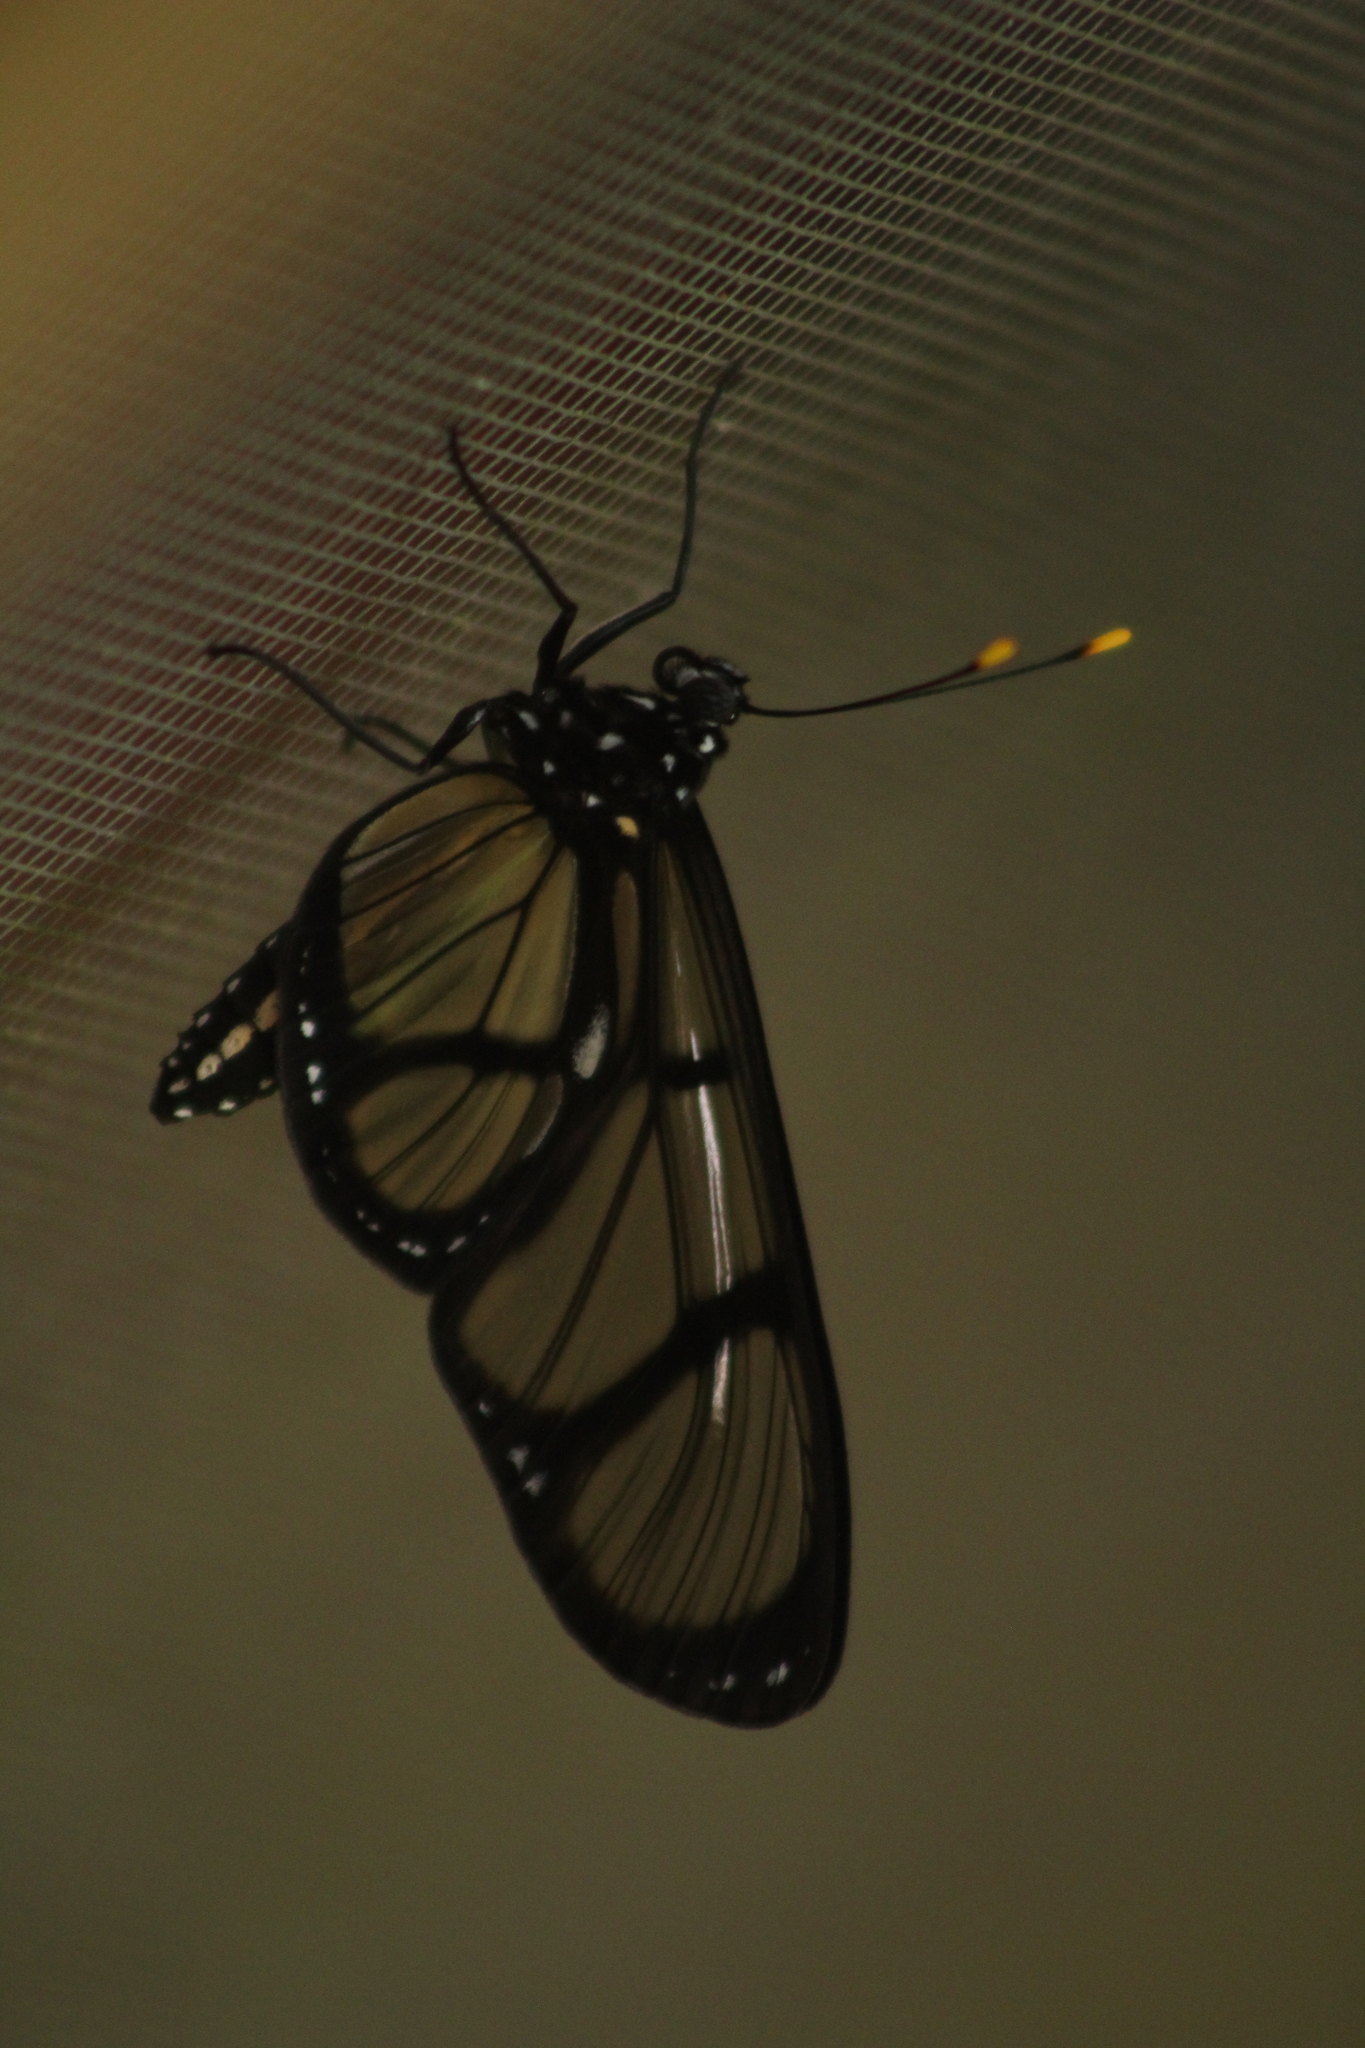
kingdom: Animalia
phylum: Arthropoda
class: Insecta
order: Lepidoptera
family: Nymphalidae
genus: Methona
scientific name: Methona confusa
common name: Confusa tigerwing
